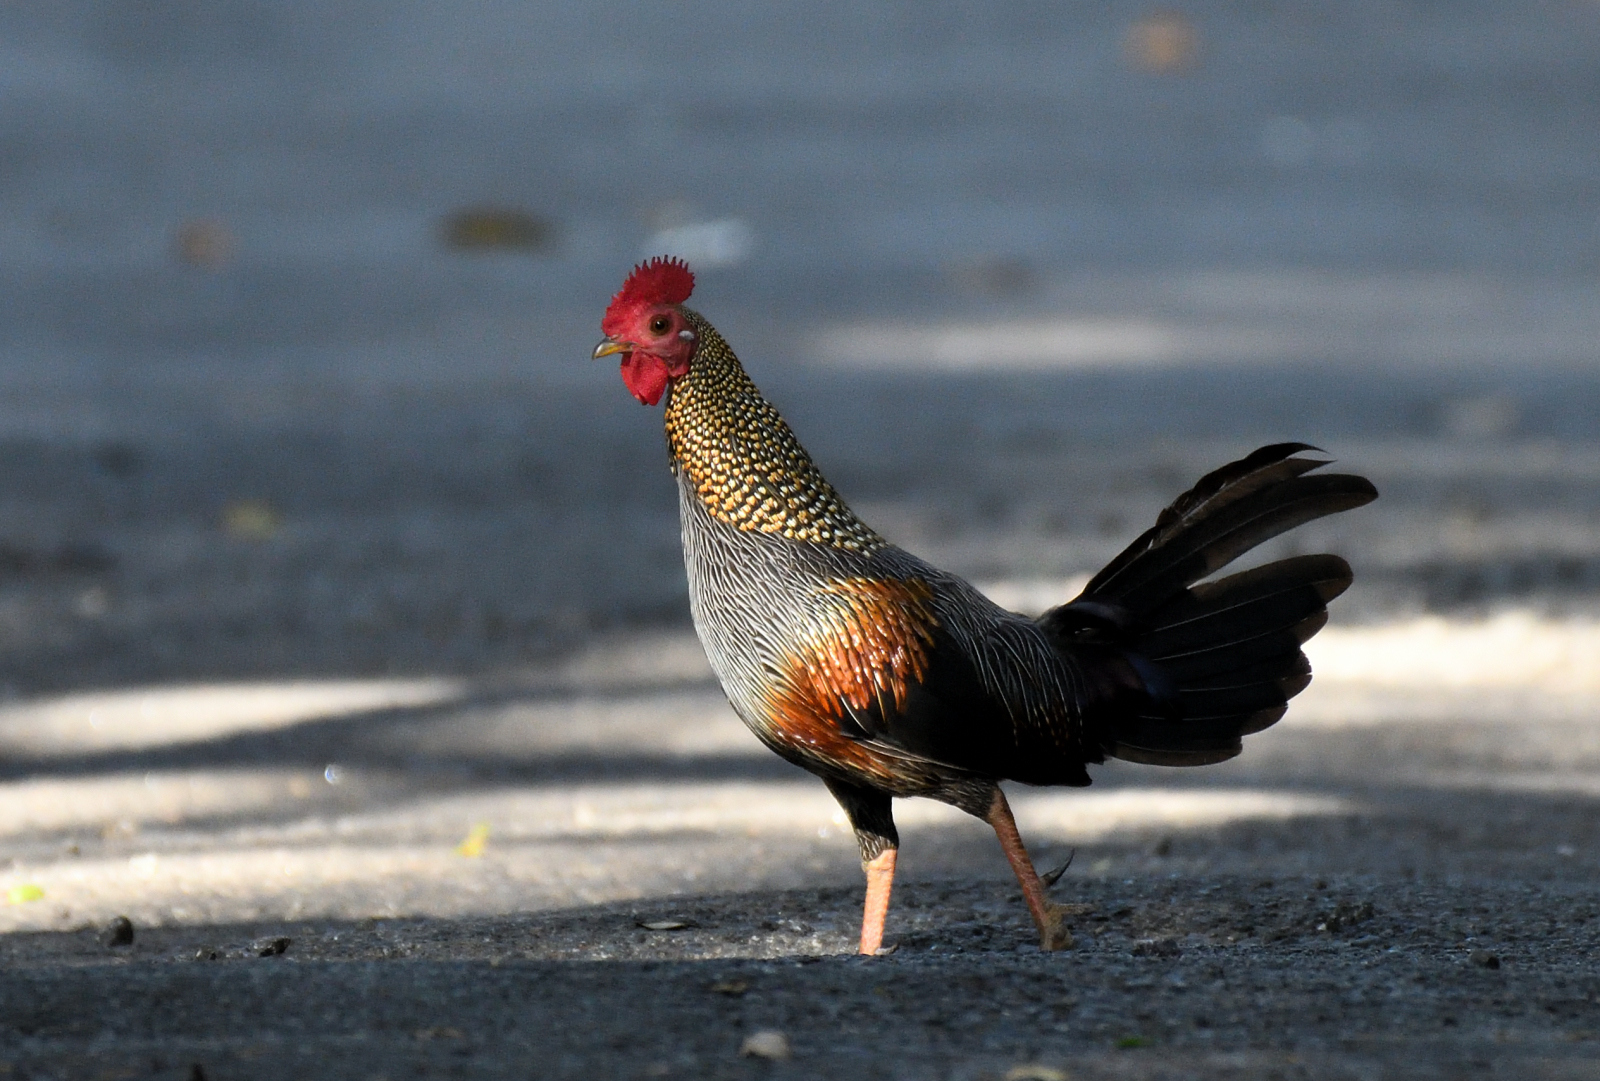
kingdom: Animalia
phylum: Chordata
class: Aves
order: Galliformes
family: Phasianidae
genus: Gallus
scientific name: Gallus sonneratii
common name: Grey junglefowl
